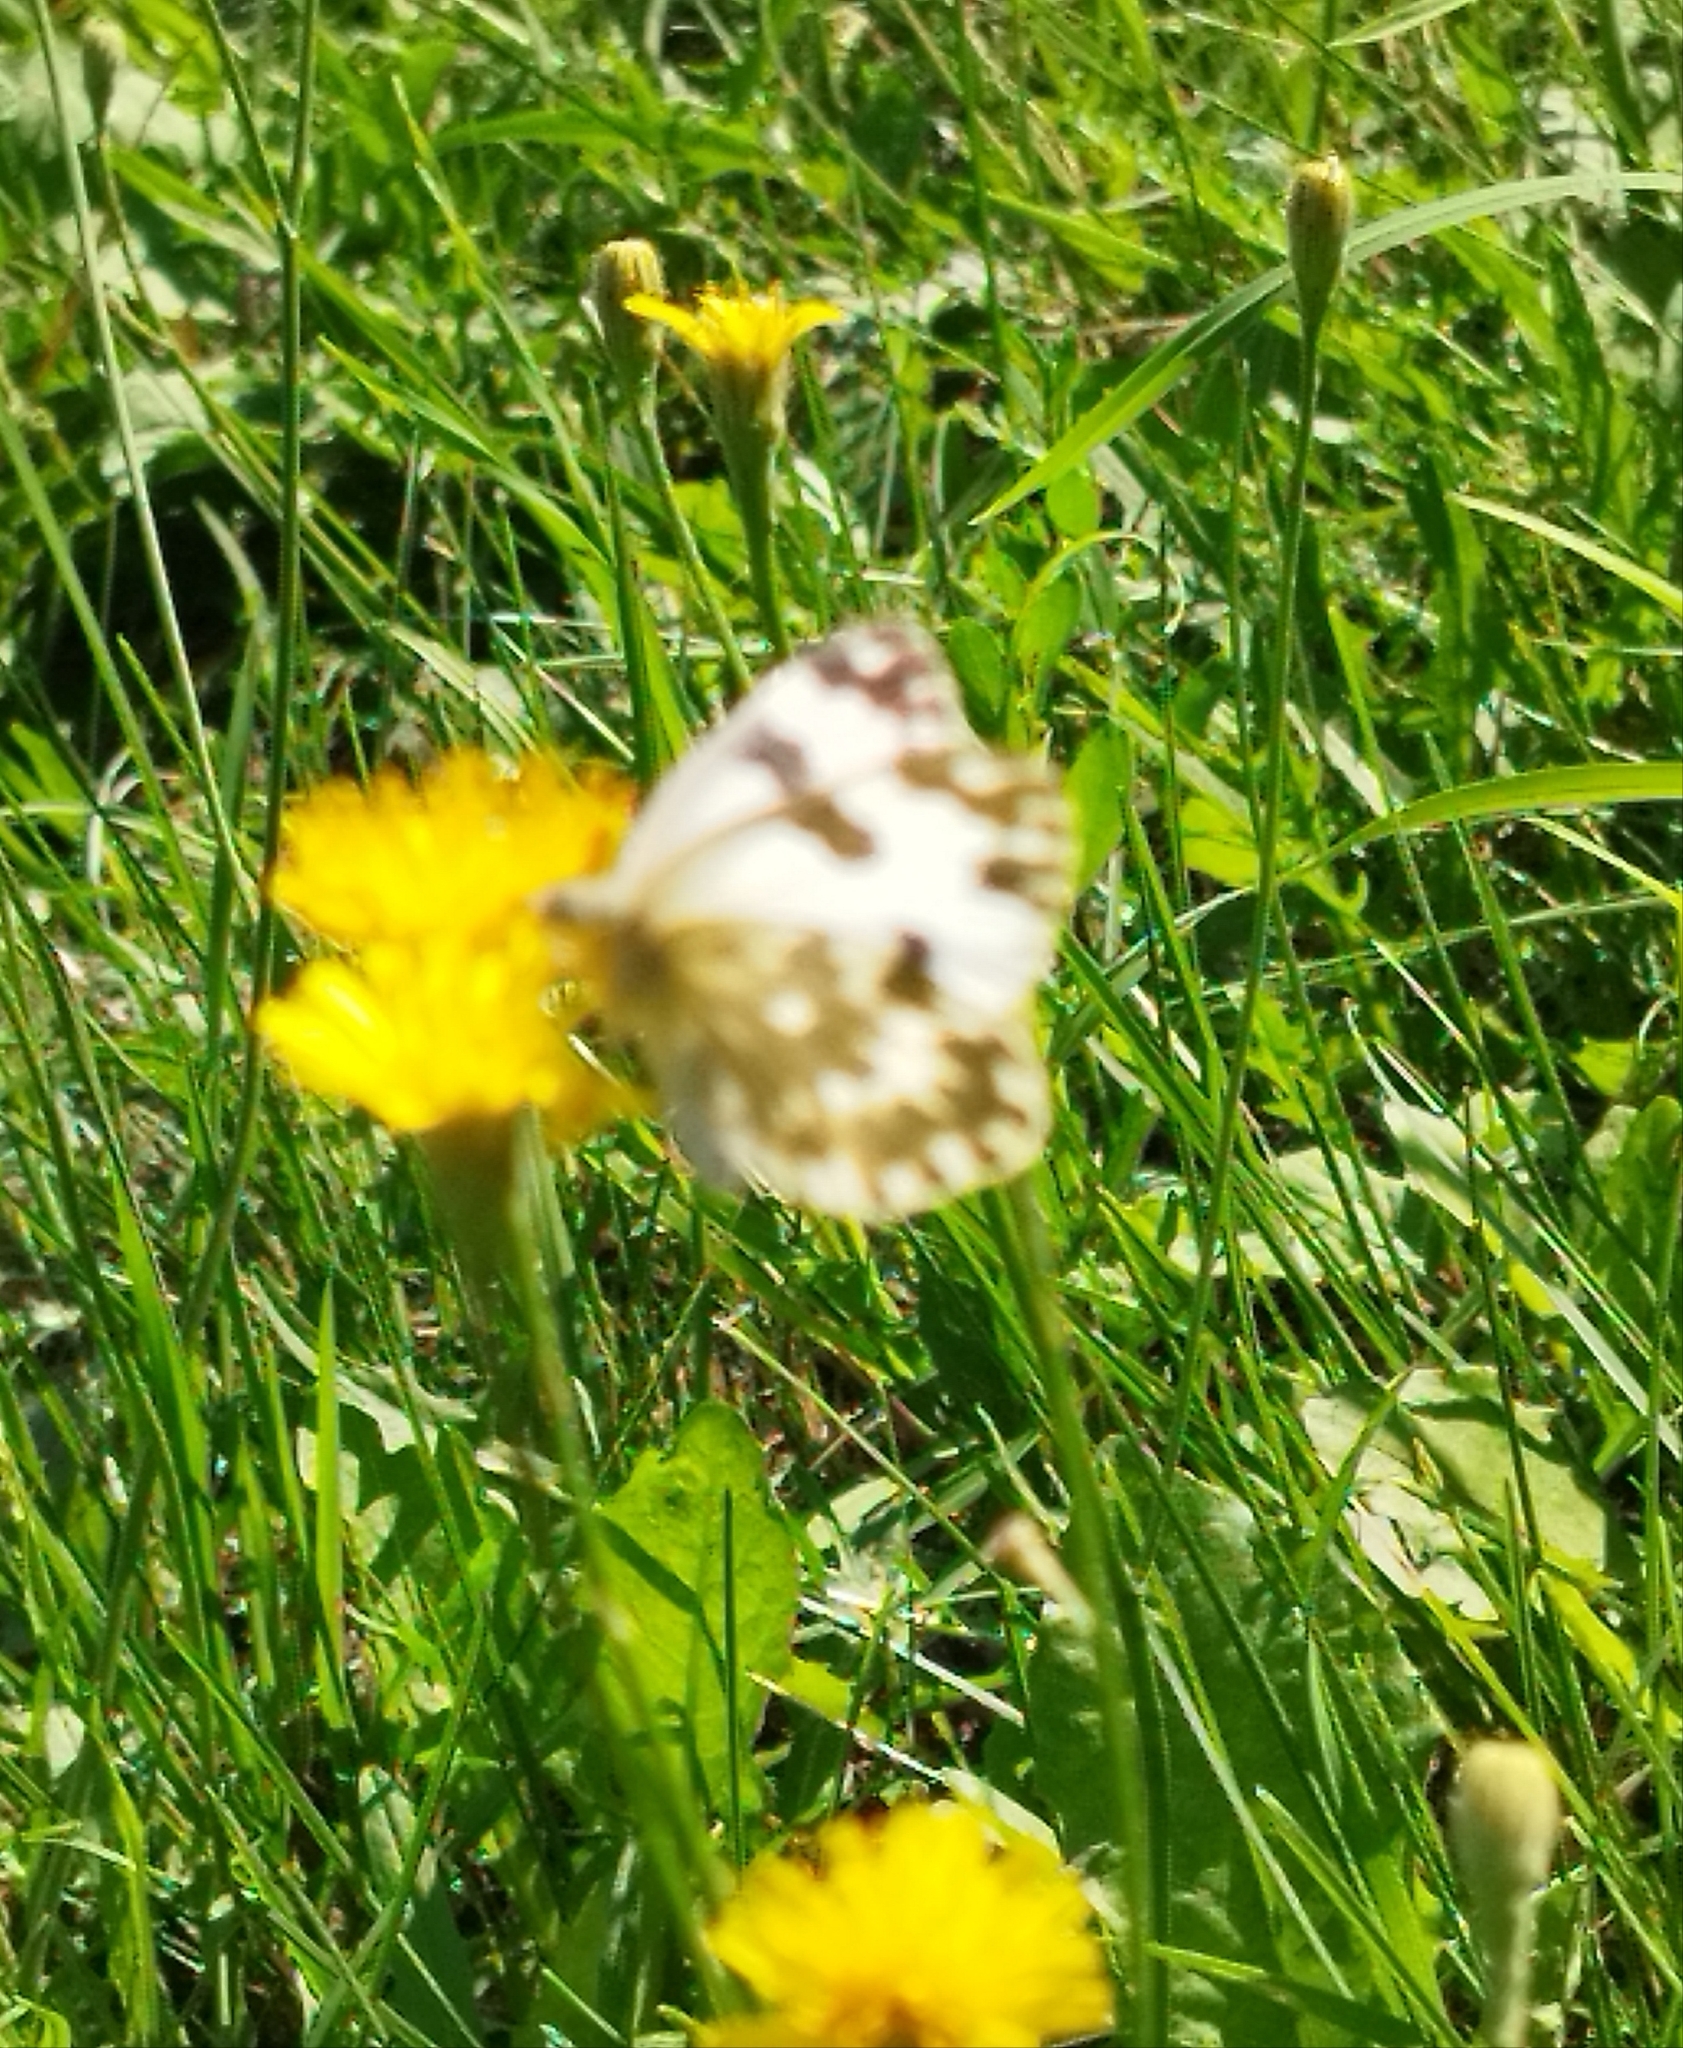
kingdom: Animalia
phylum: Arthropoda
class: Insecta
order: Lepidoptera
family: Pieridae
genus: Pontia
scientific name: Pontia edusa
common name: Eastern bath white
